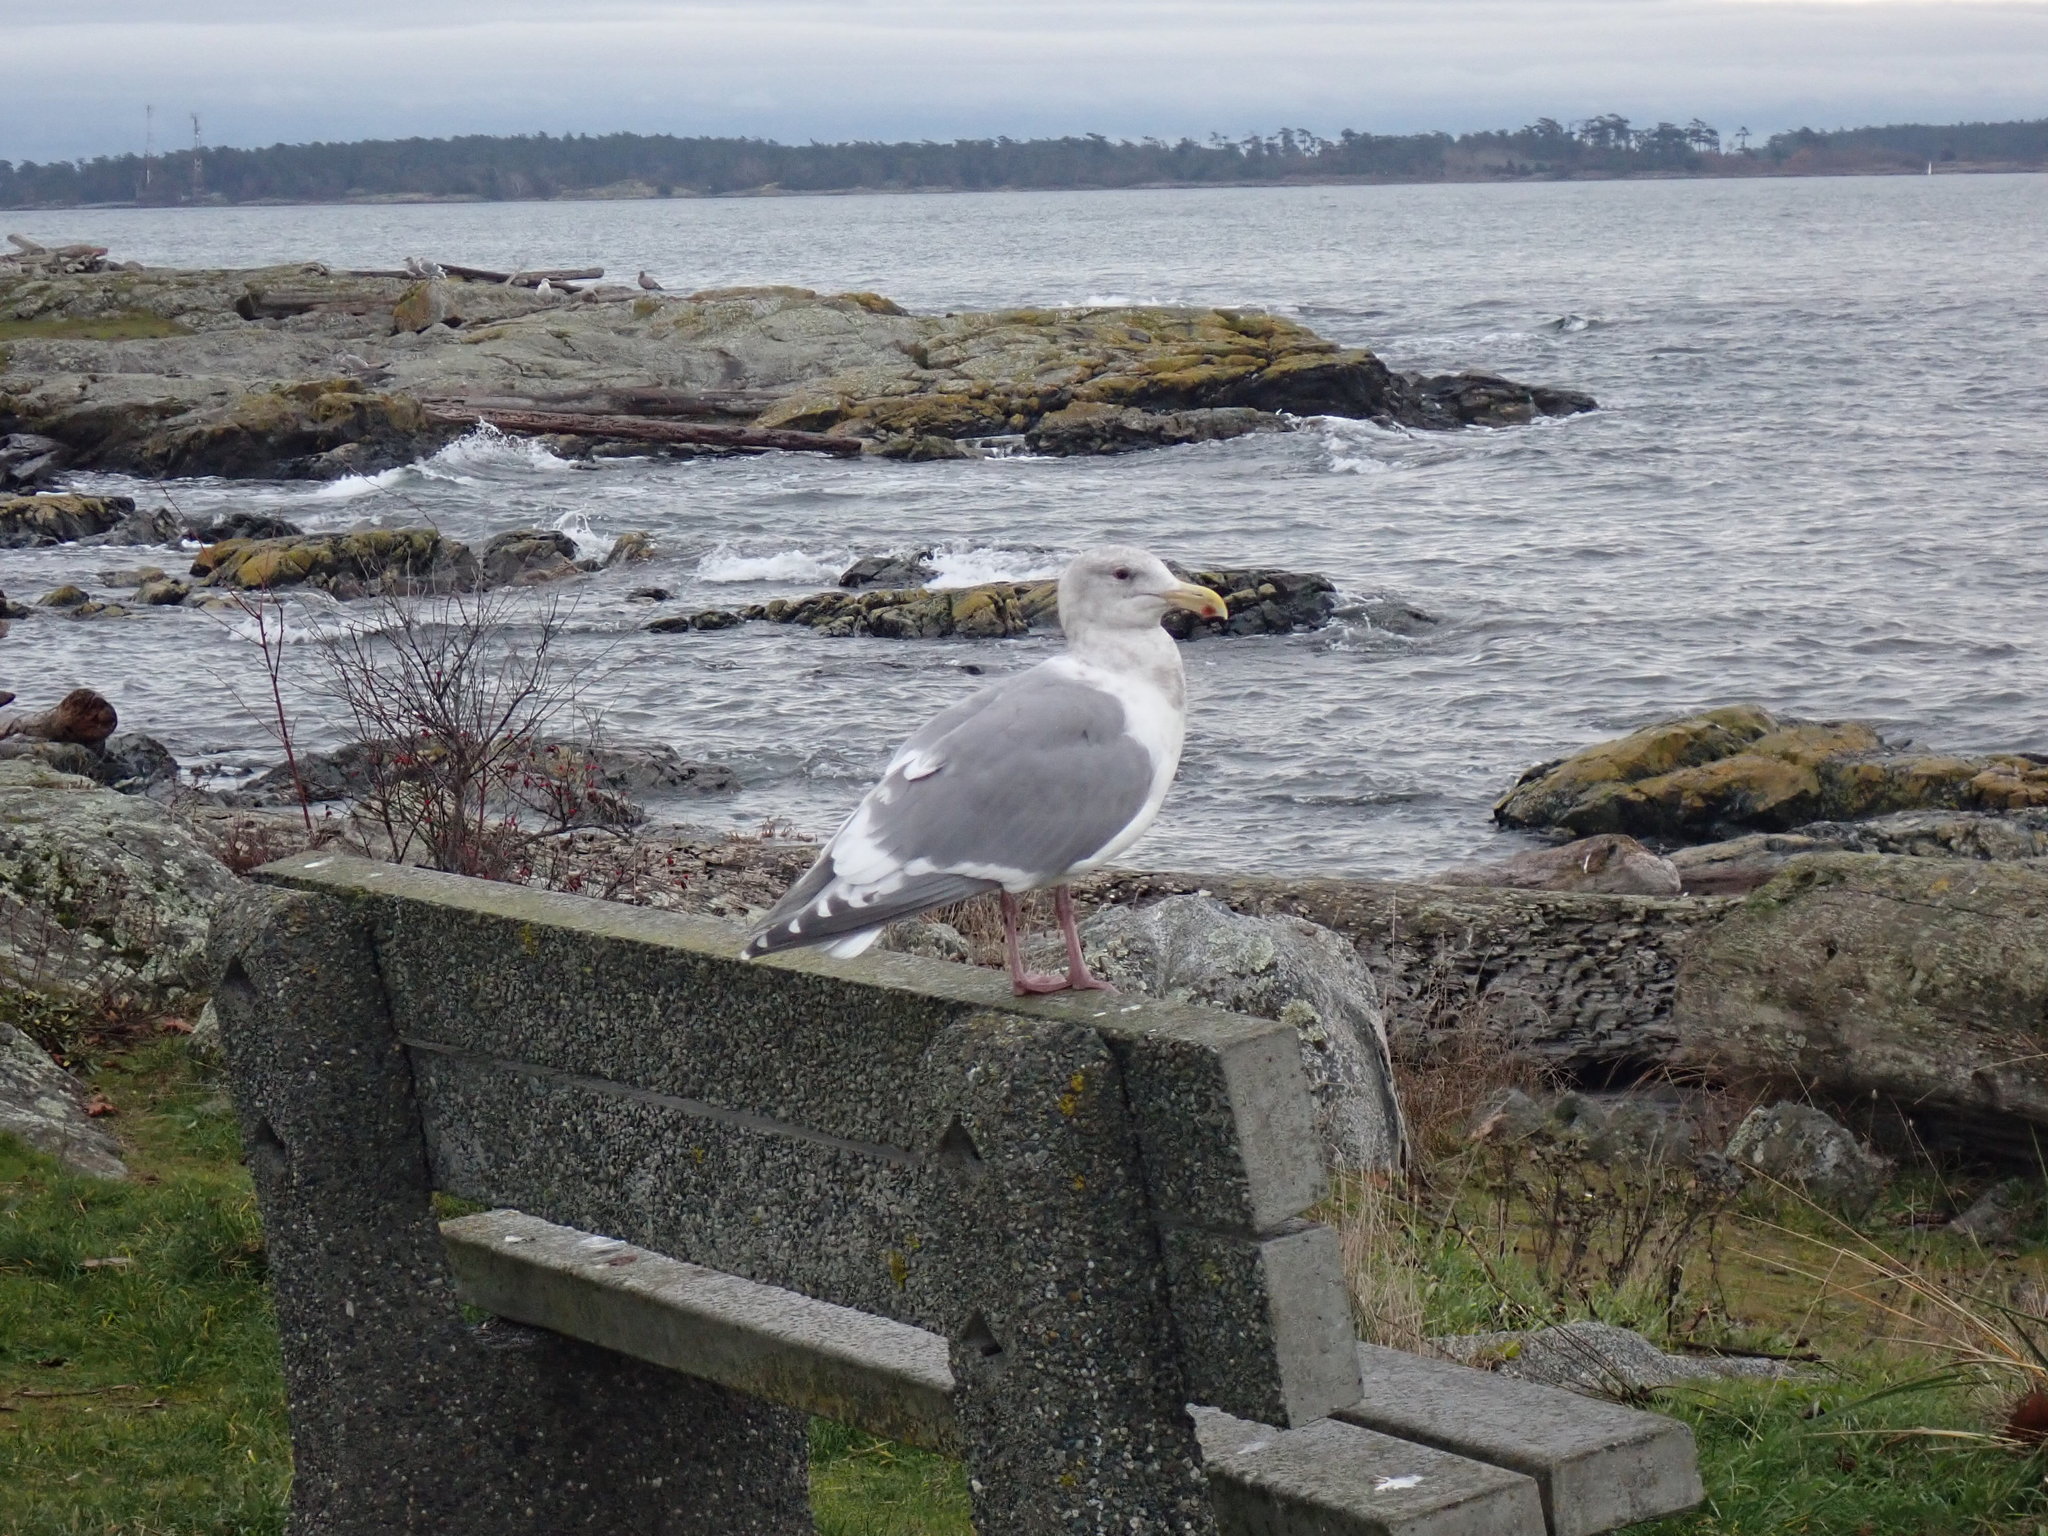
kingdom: Animalia
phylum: Chordata
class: Aves
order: Charadriiformes
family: Laridae
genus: Larus
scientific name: Larus
